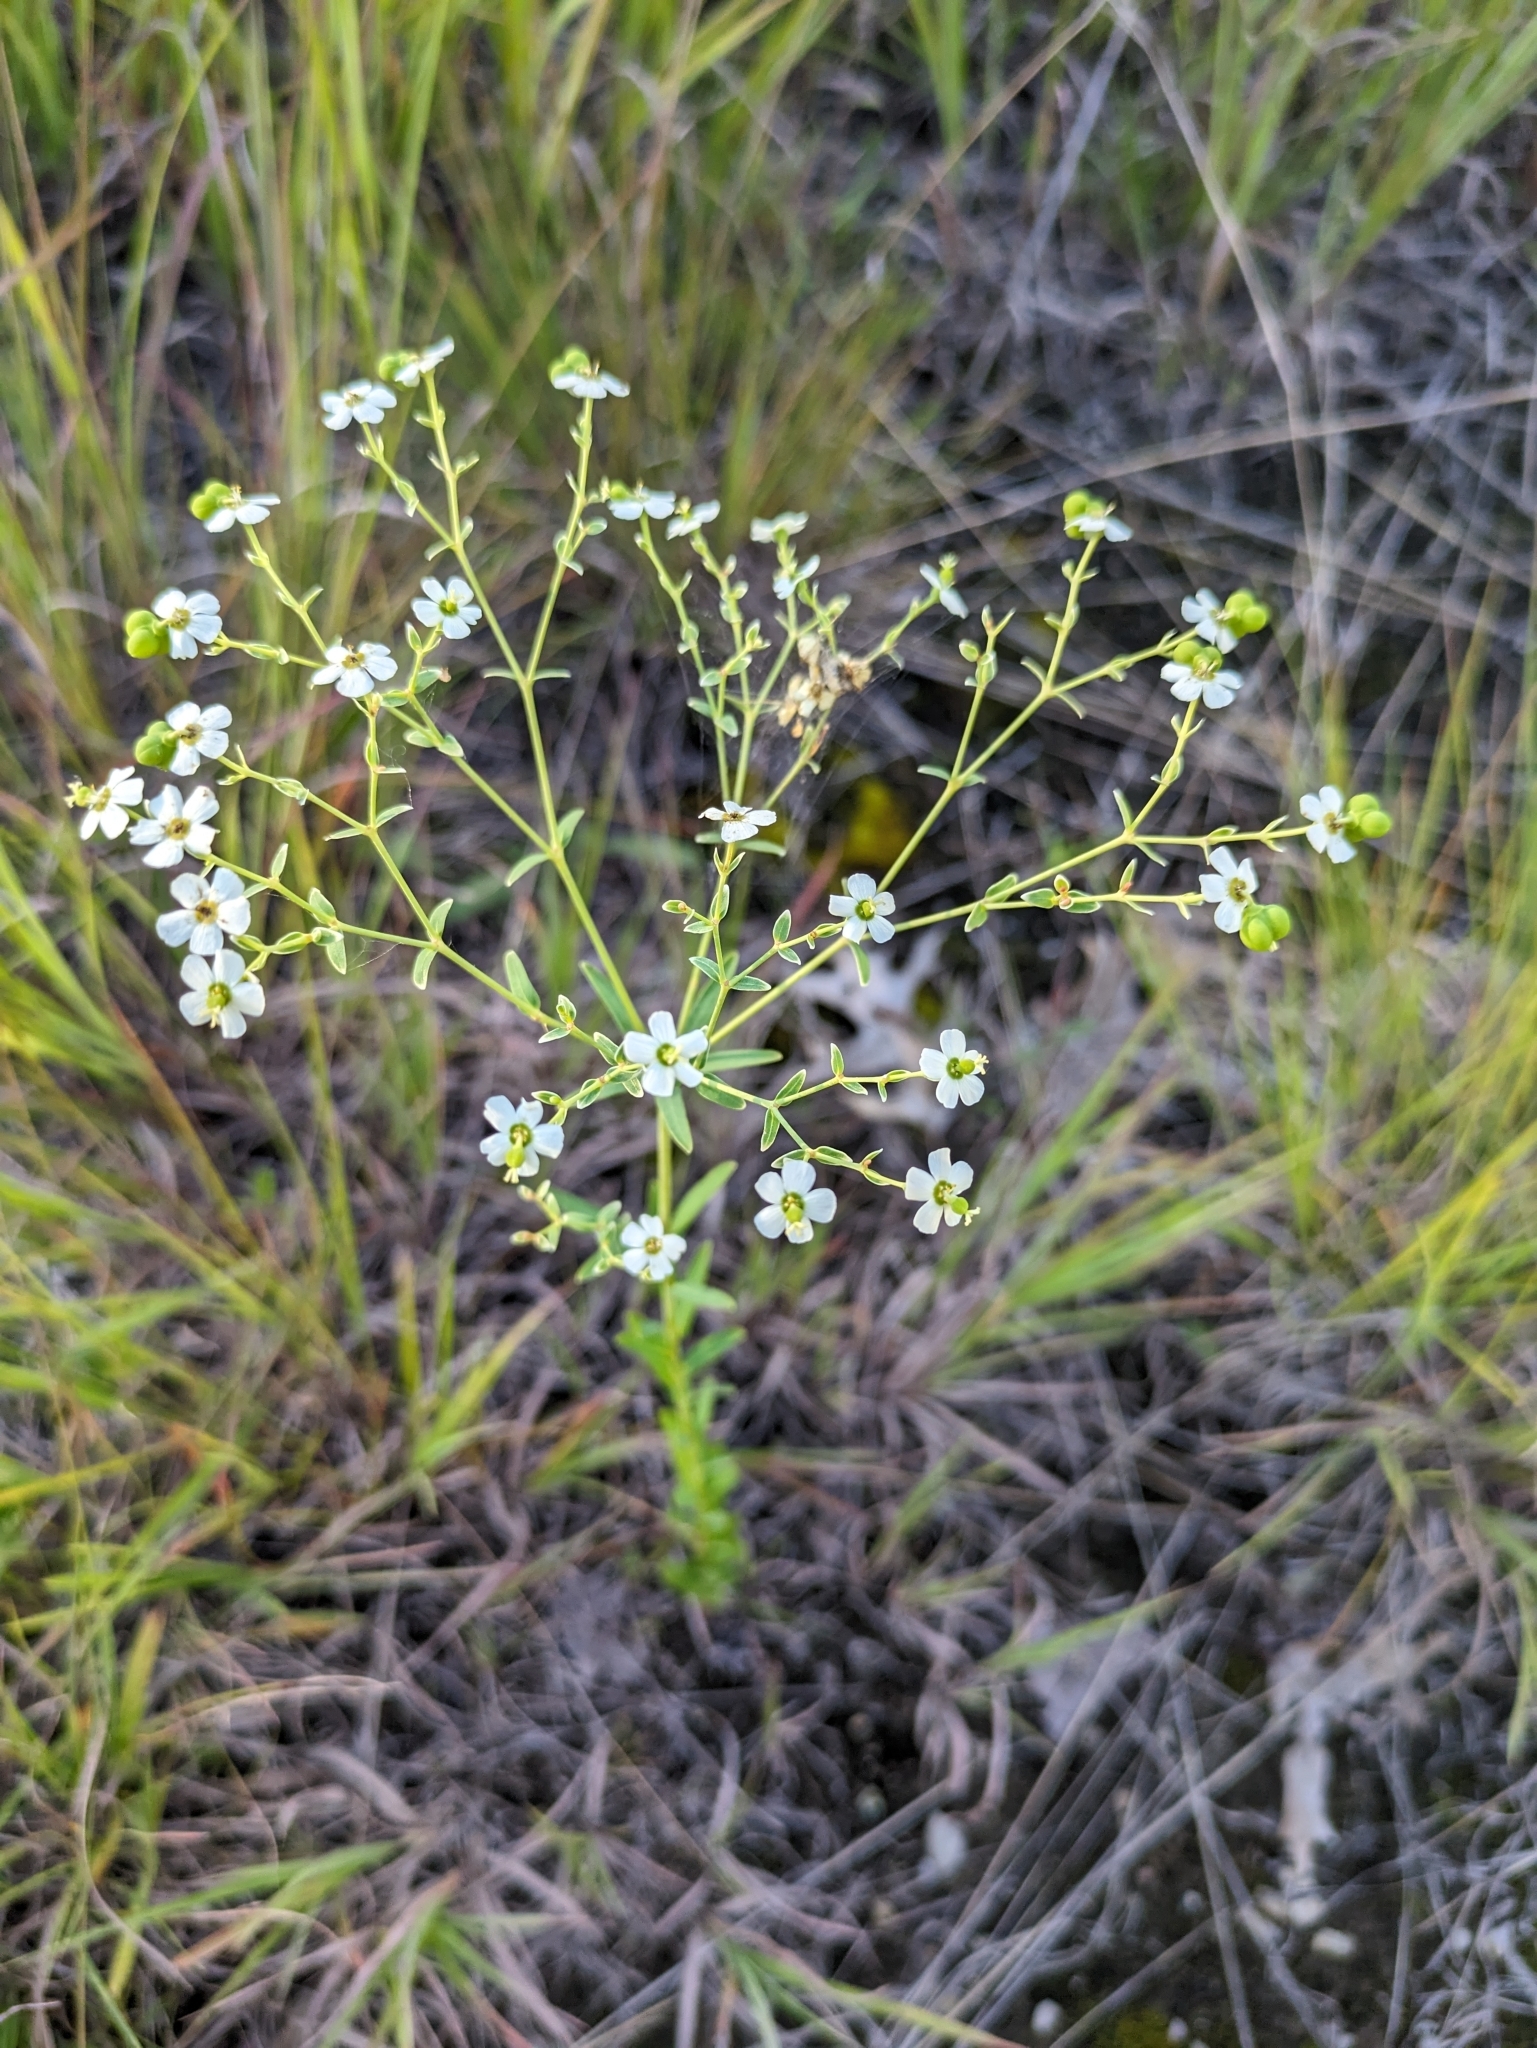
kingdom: Plantae
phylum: Tracheophyta
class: Magnoliopsida
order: Malpighiales
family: Euphorbiaceae
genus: Euphorbia
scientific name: Euphorbia corollata
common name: Flowering spurge
